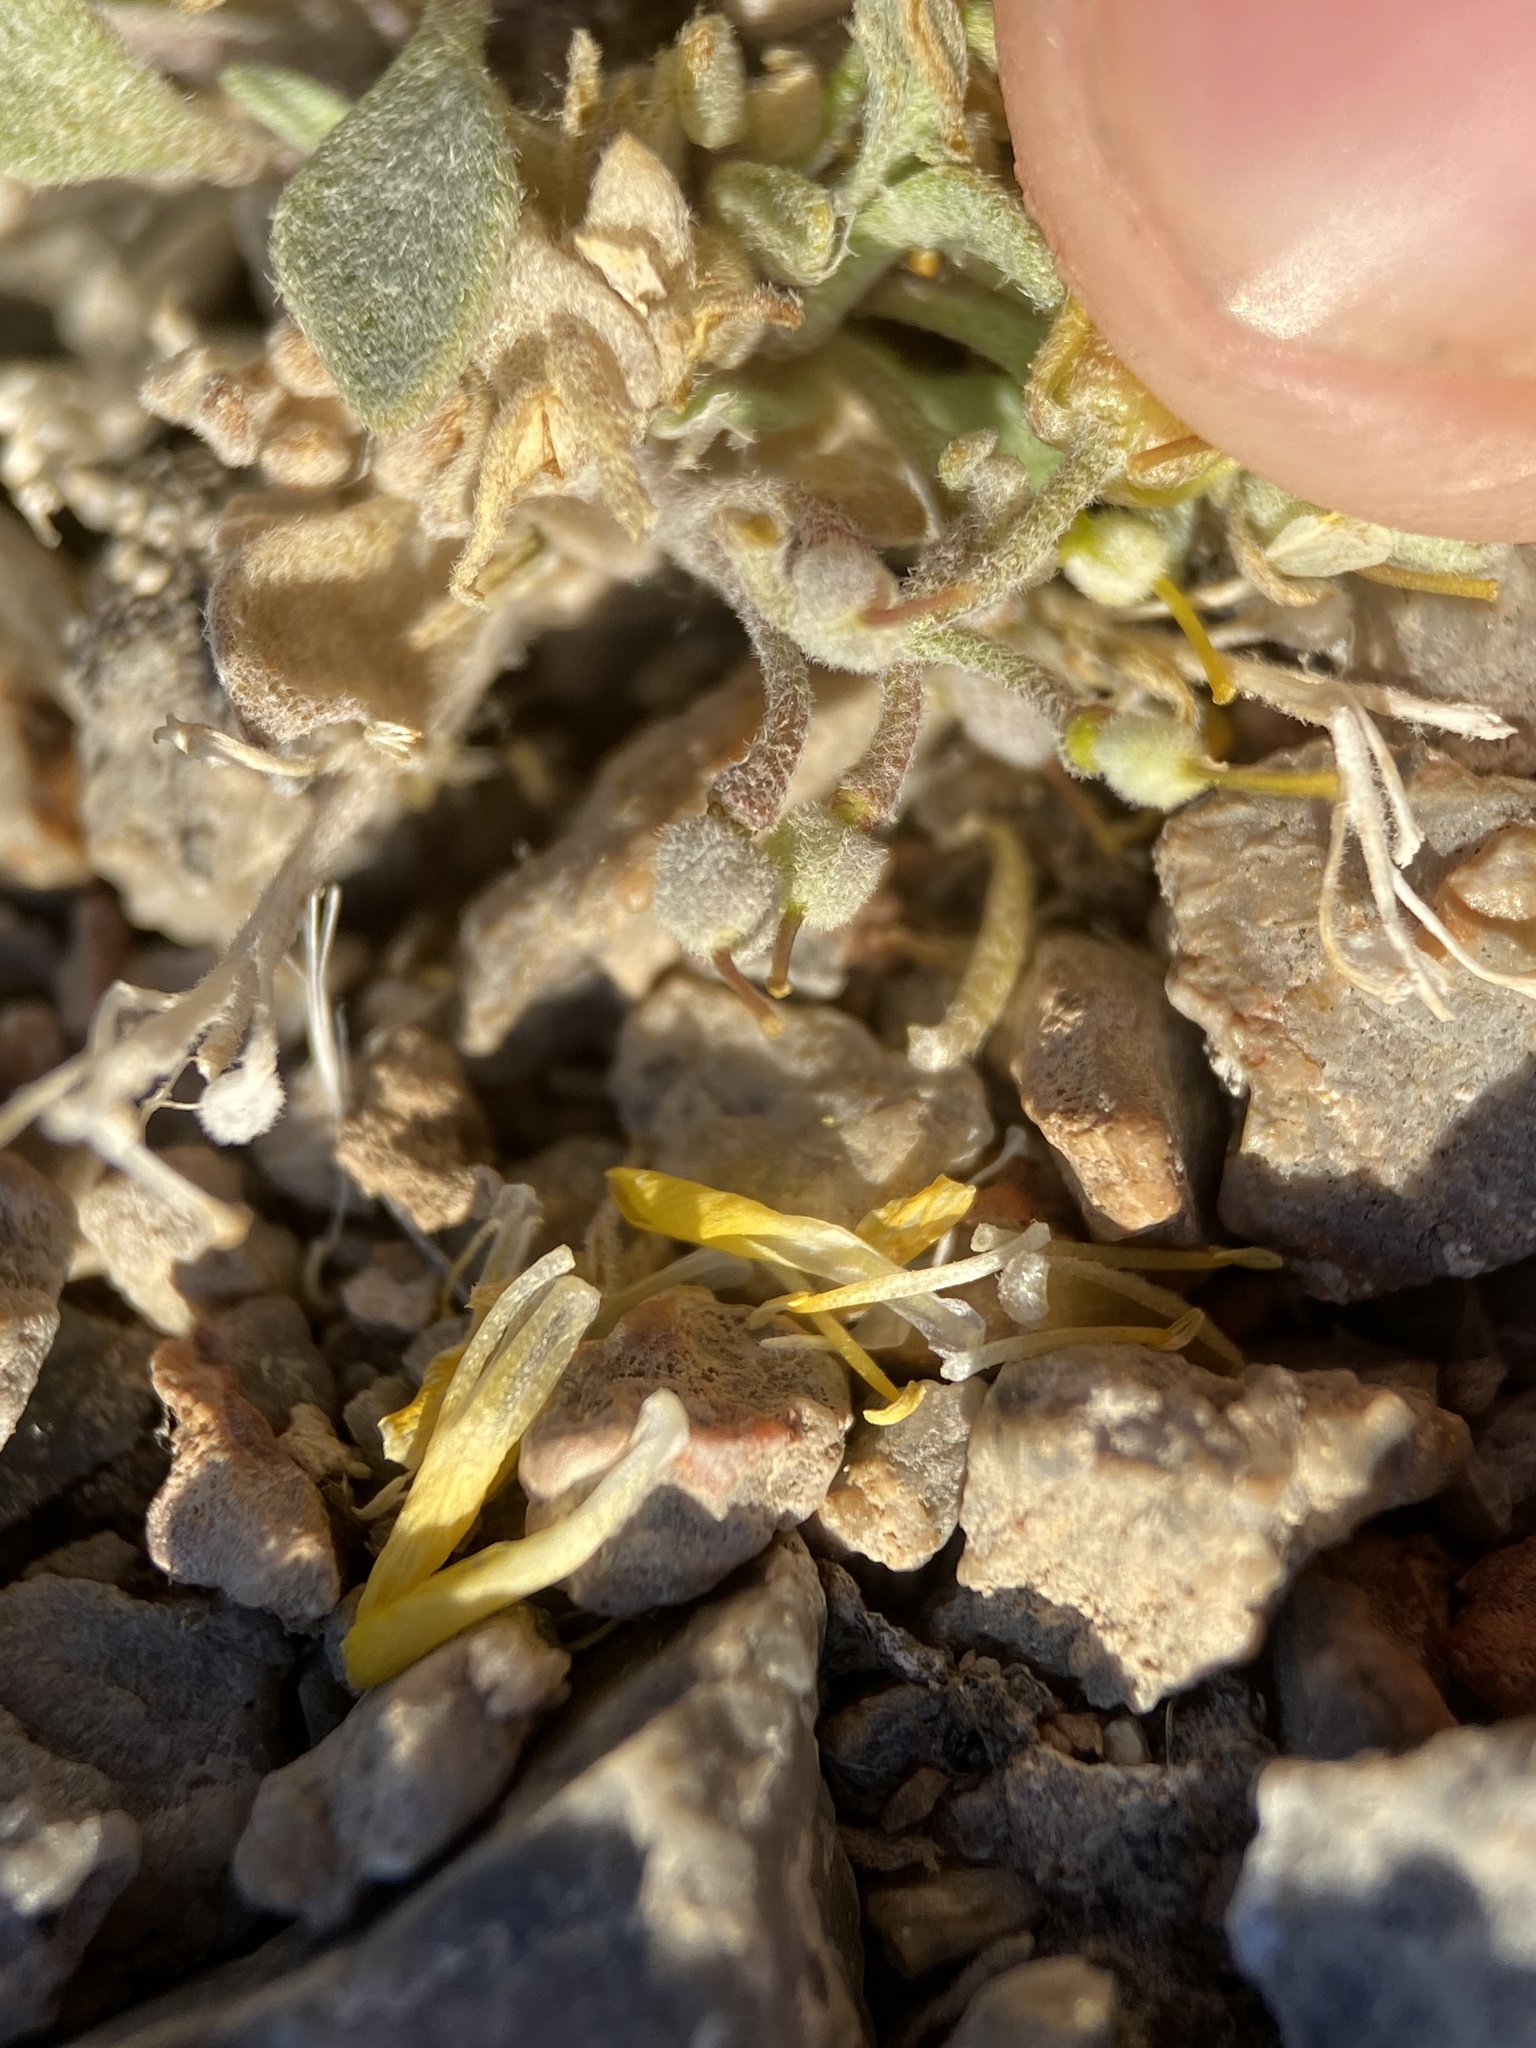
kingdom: Plantae
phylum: Tracheophyta
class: Magnoliopsida
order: Brassicales
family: Brassicaceae
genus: Physaria
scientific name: Physaria chambersii
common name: Chamber's twinpod
